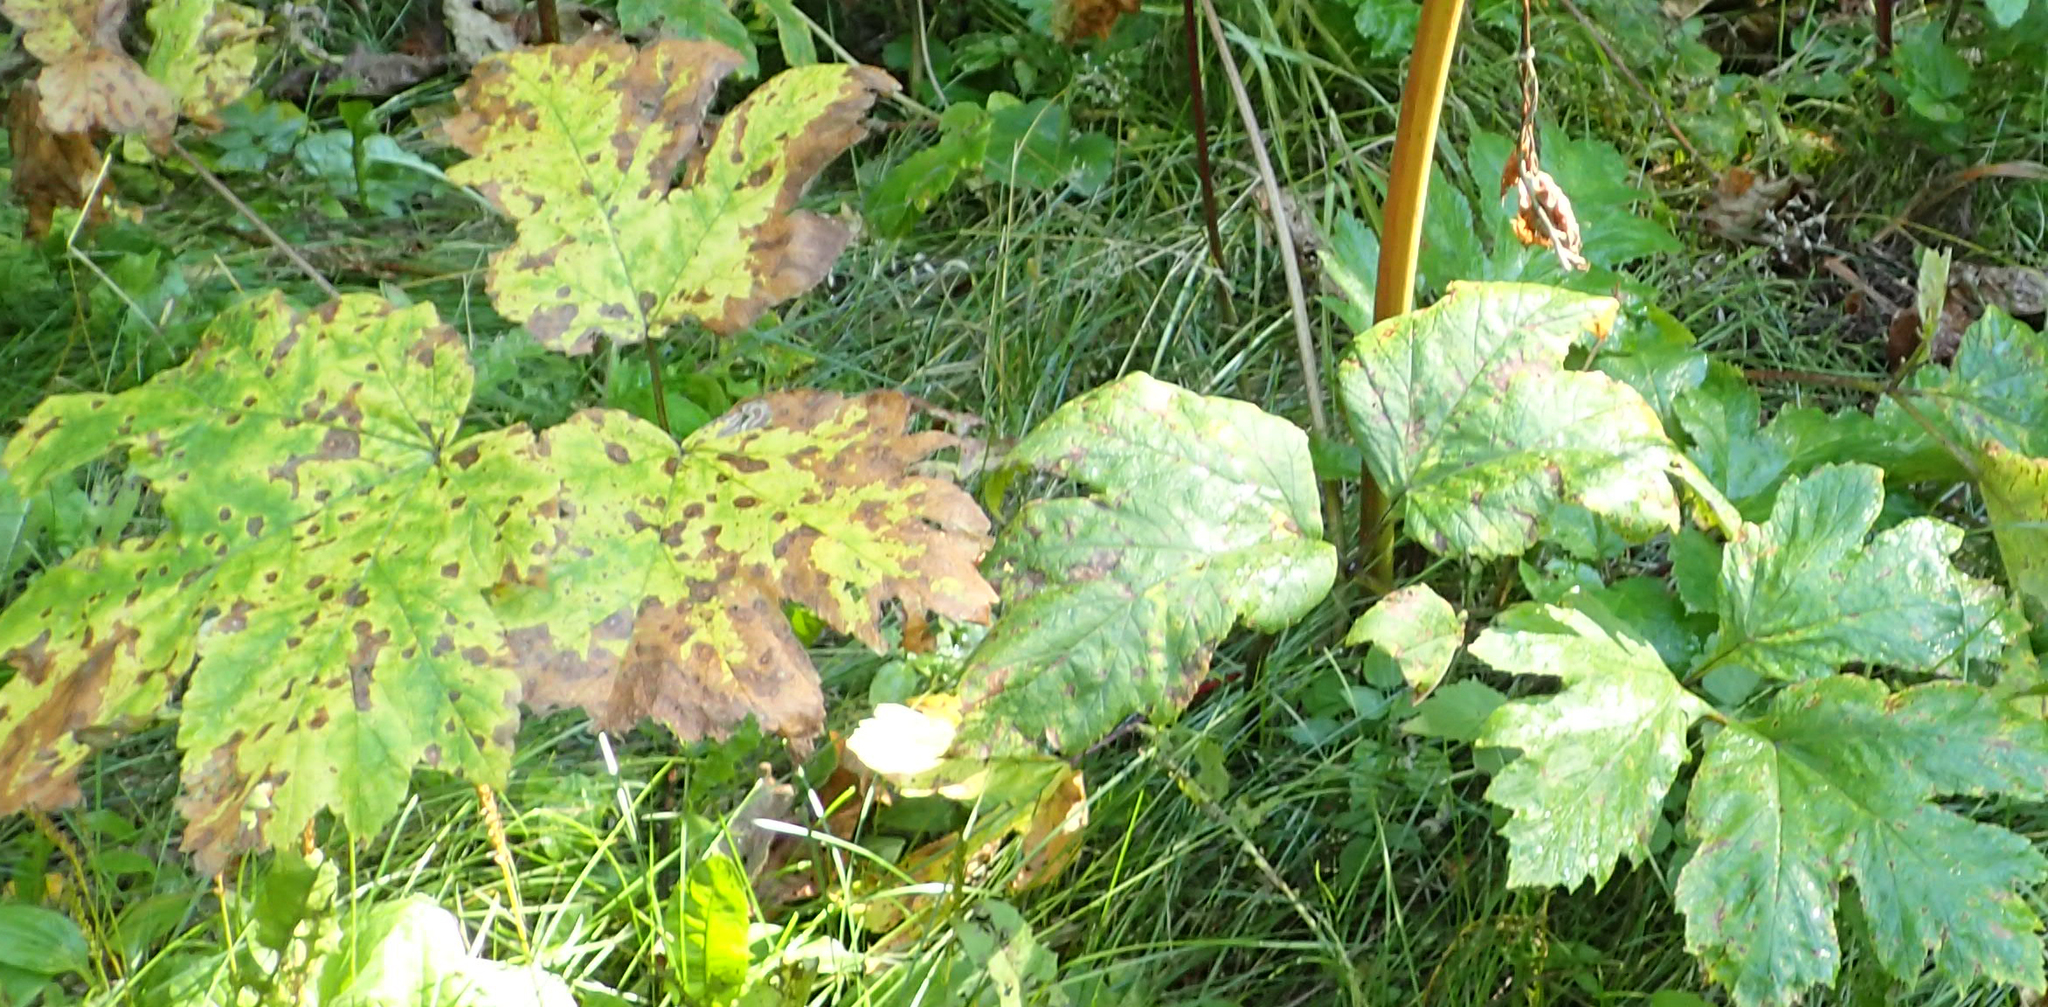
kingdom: Plantae
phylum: Tracheophyta
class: Magnoliopsida
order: Apiales
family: Apiaceae
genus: Heracleum
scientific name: Heracleum maximum
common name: American cow parsnip
